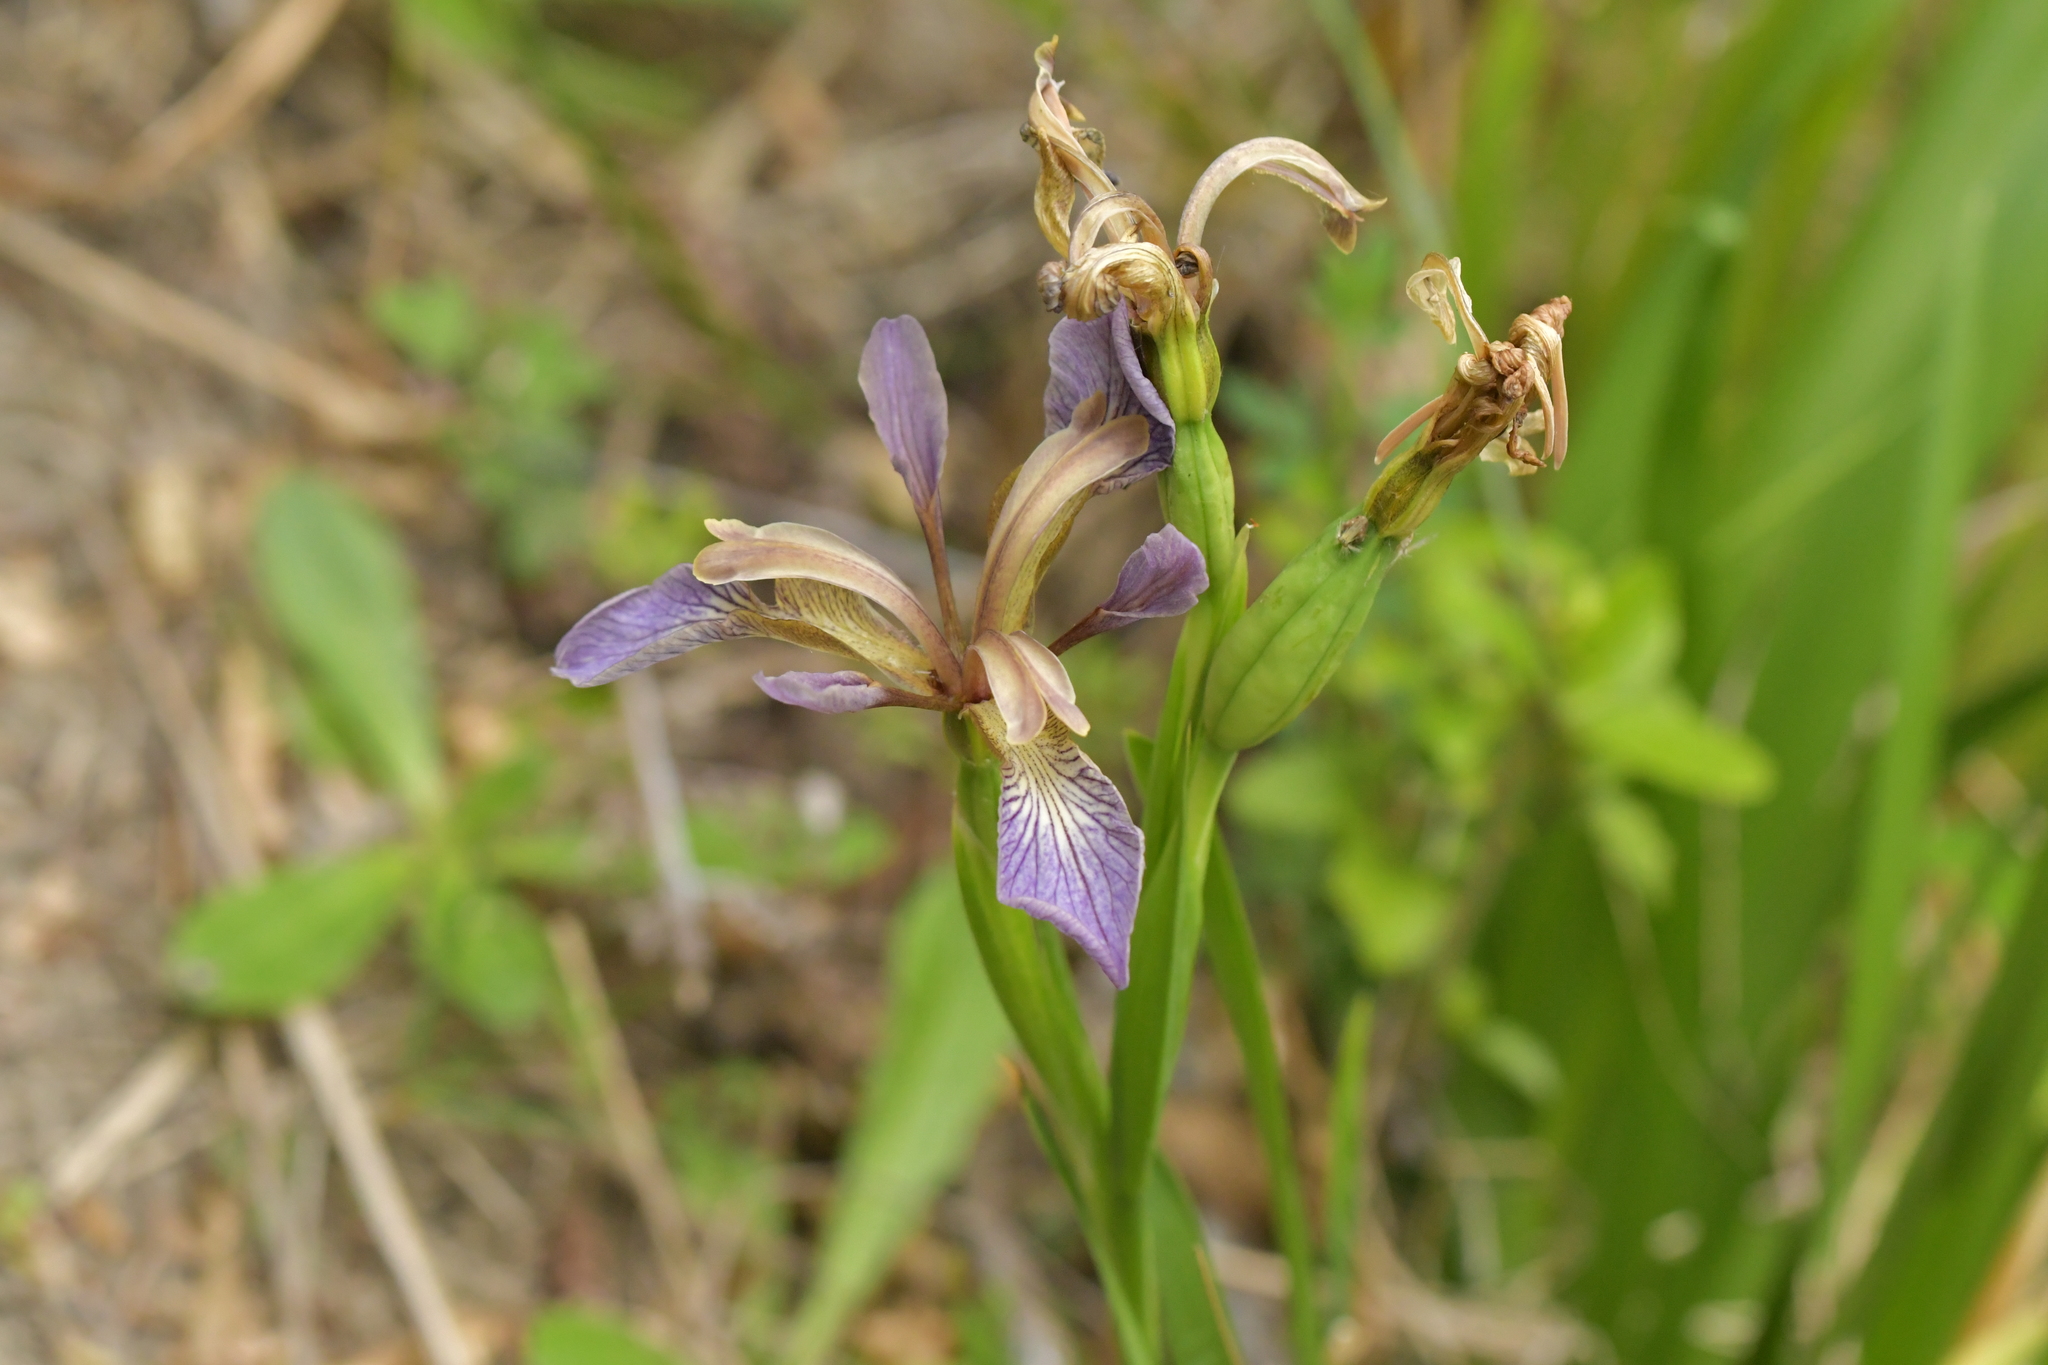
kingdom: Plantae
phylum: Tracheophyta
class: Liliopsida
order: Asparagales
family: Iridaceae
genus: Iris
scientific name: Iris foetidissima
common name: Stinking iris
